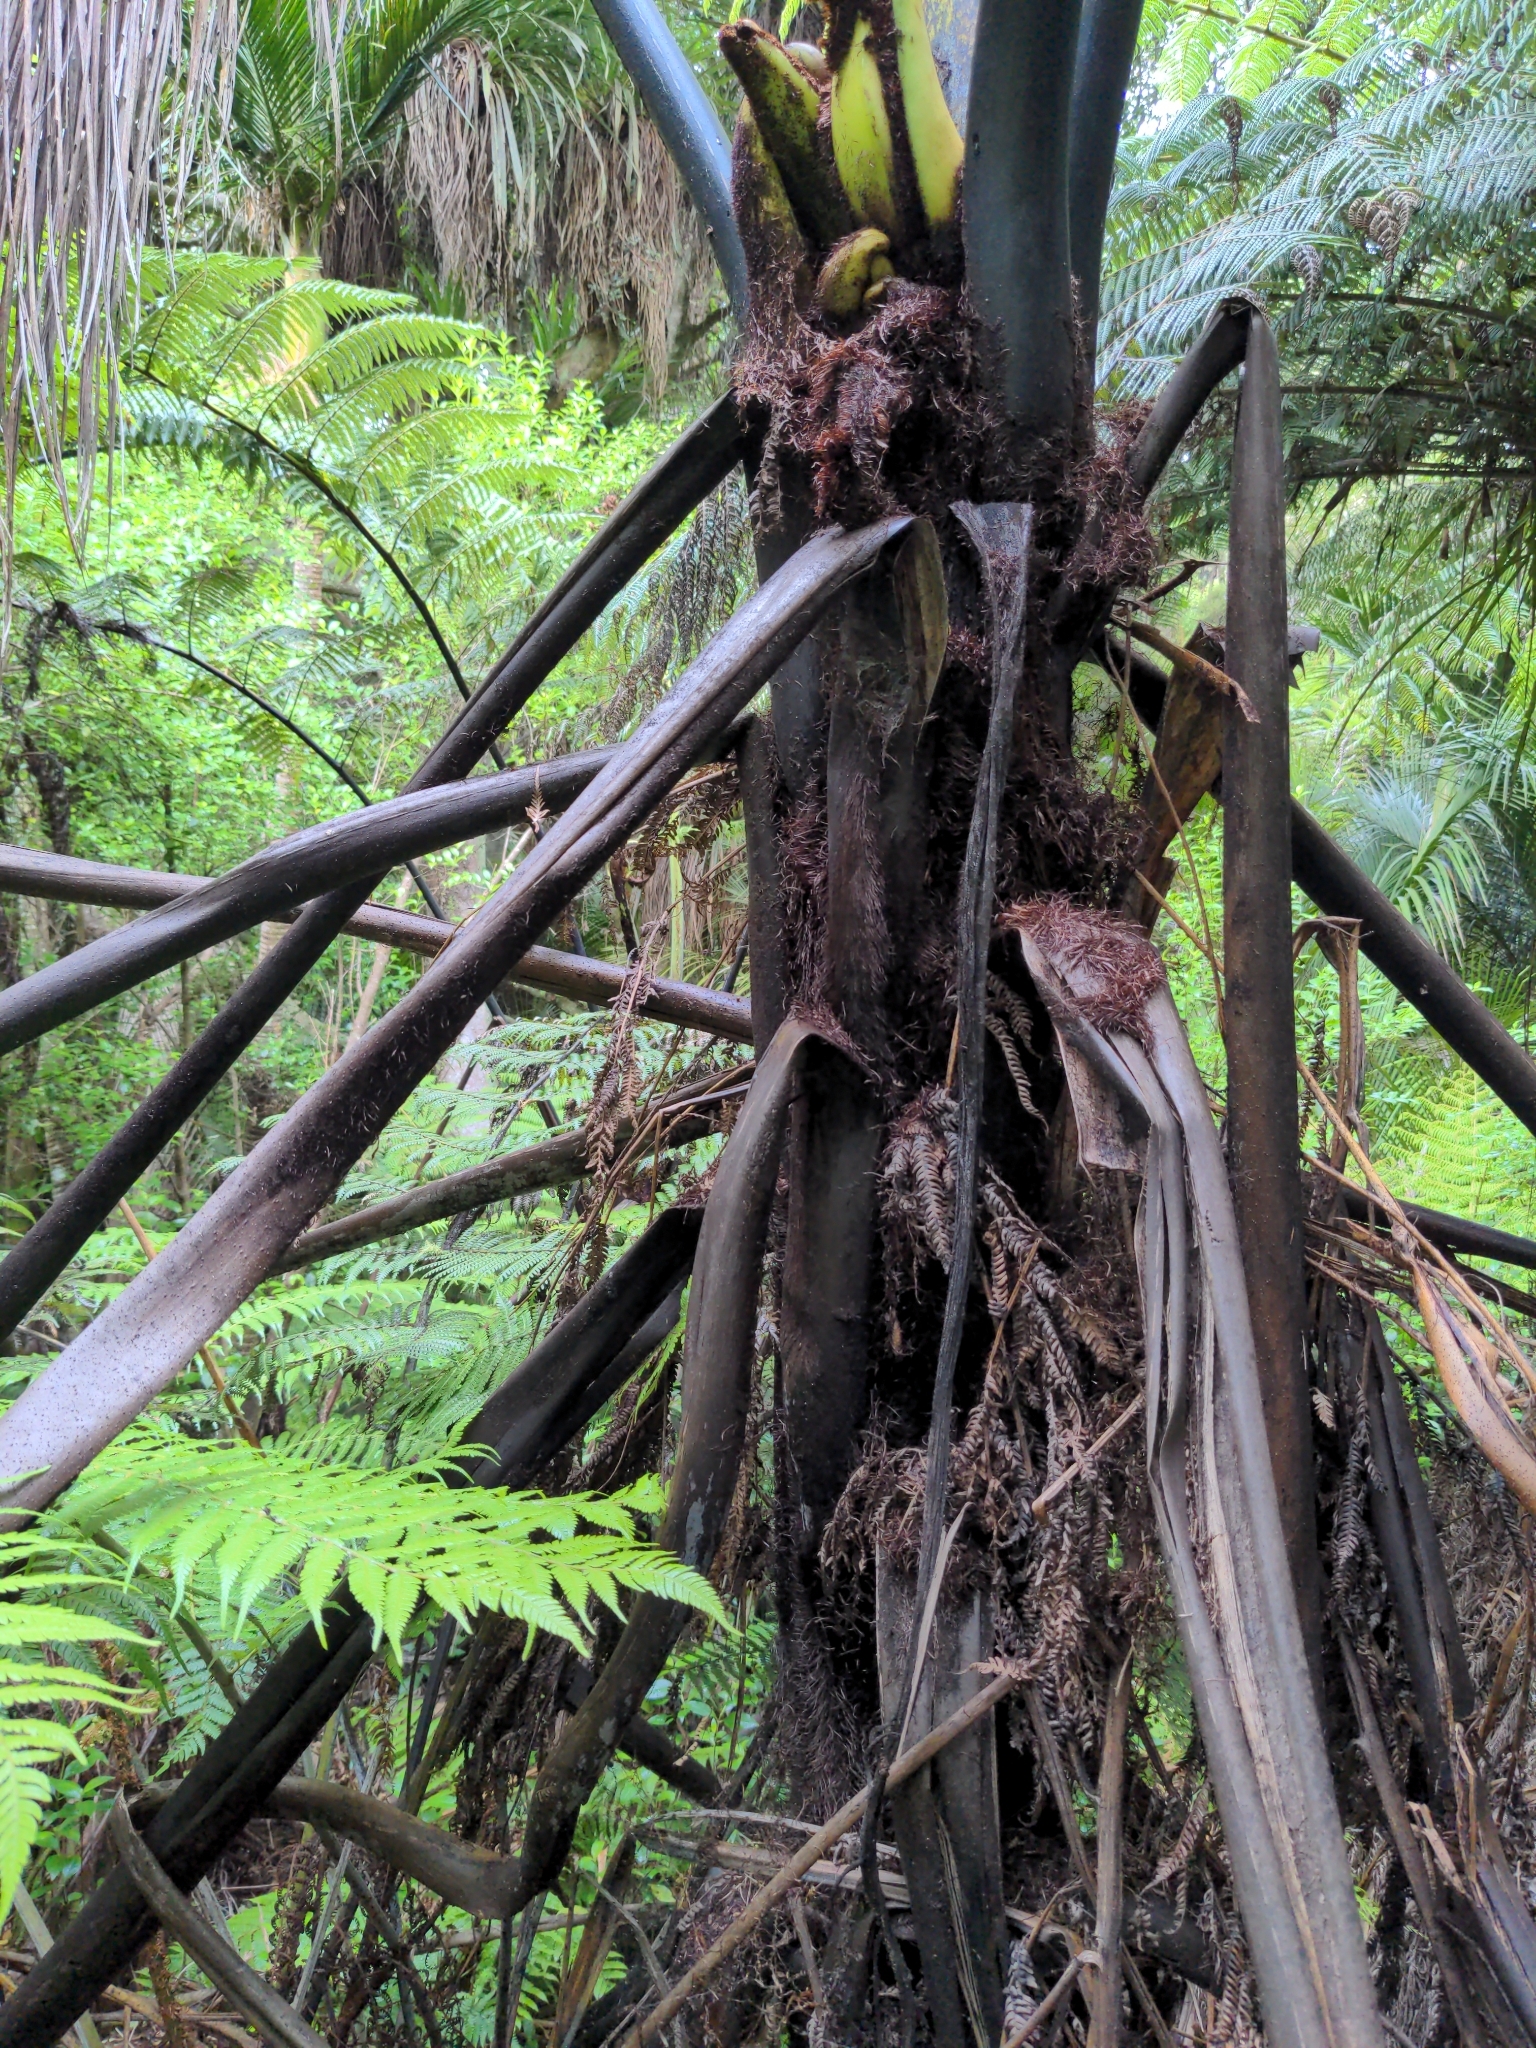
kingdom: Plantae
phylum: Tracheophyta
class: Polypodiopsida
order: Cyatheales
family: Cyatheaceae
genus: Sphaeropteris
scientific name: Sphaeropteris medullaris
